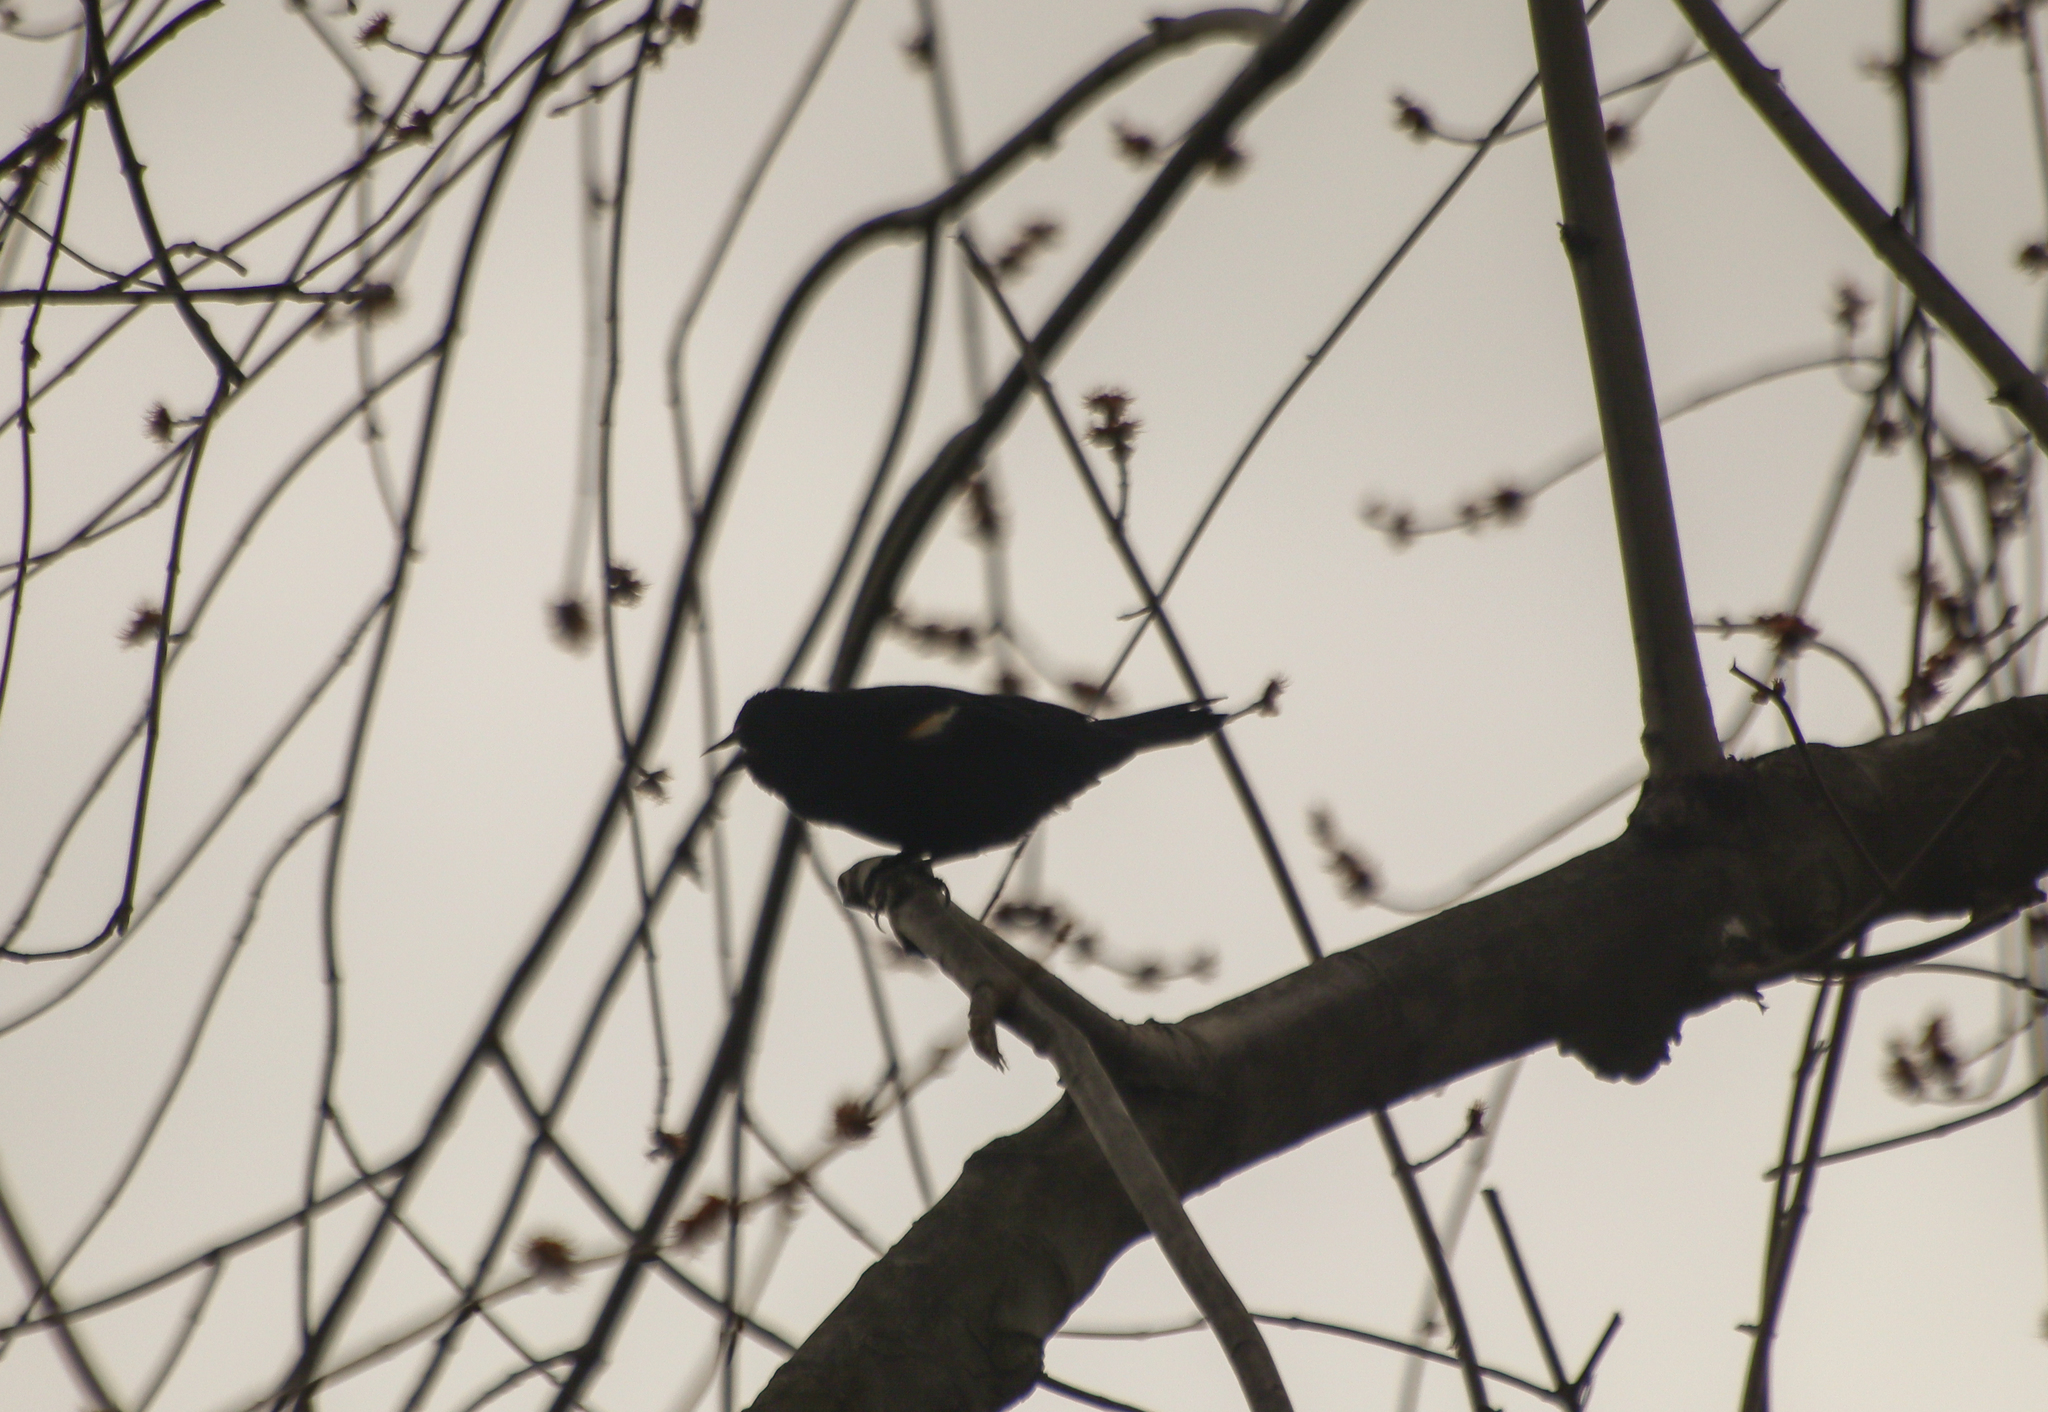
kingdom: Animalia
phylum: Chordata
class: Aves
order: Passeriformes
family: Icteridae
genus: Agelaius
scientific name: Agelaius phoeniceus
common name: Red-winged blackbird
